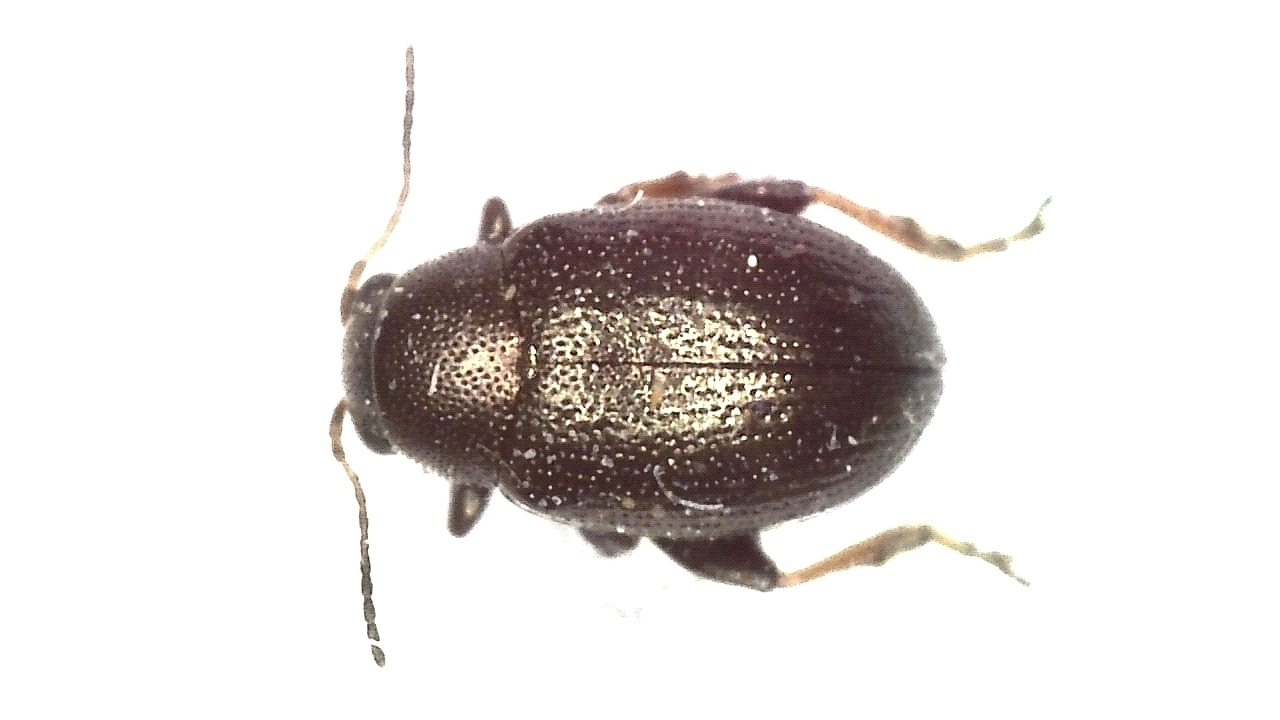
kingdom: Animalia
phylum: Arthropoda
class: Insecta
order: Coleoptera
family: Chrysomelidae
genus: Chaetocnema
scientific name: Chaetocnema hortensis
